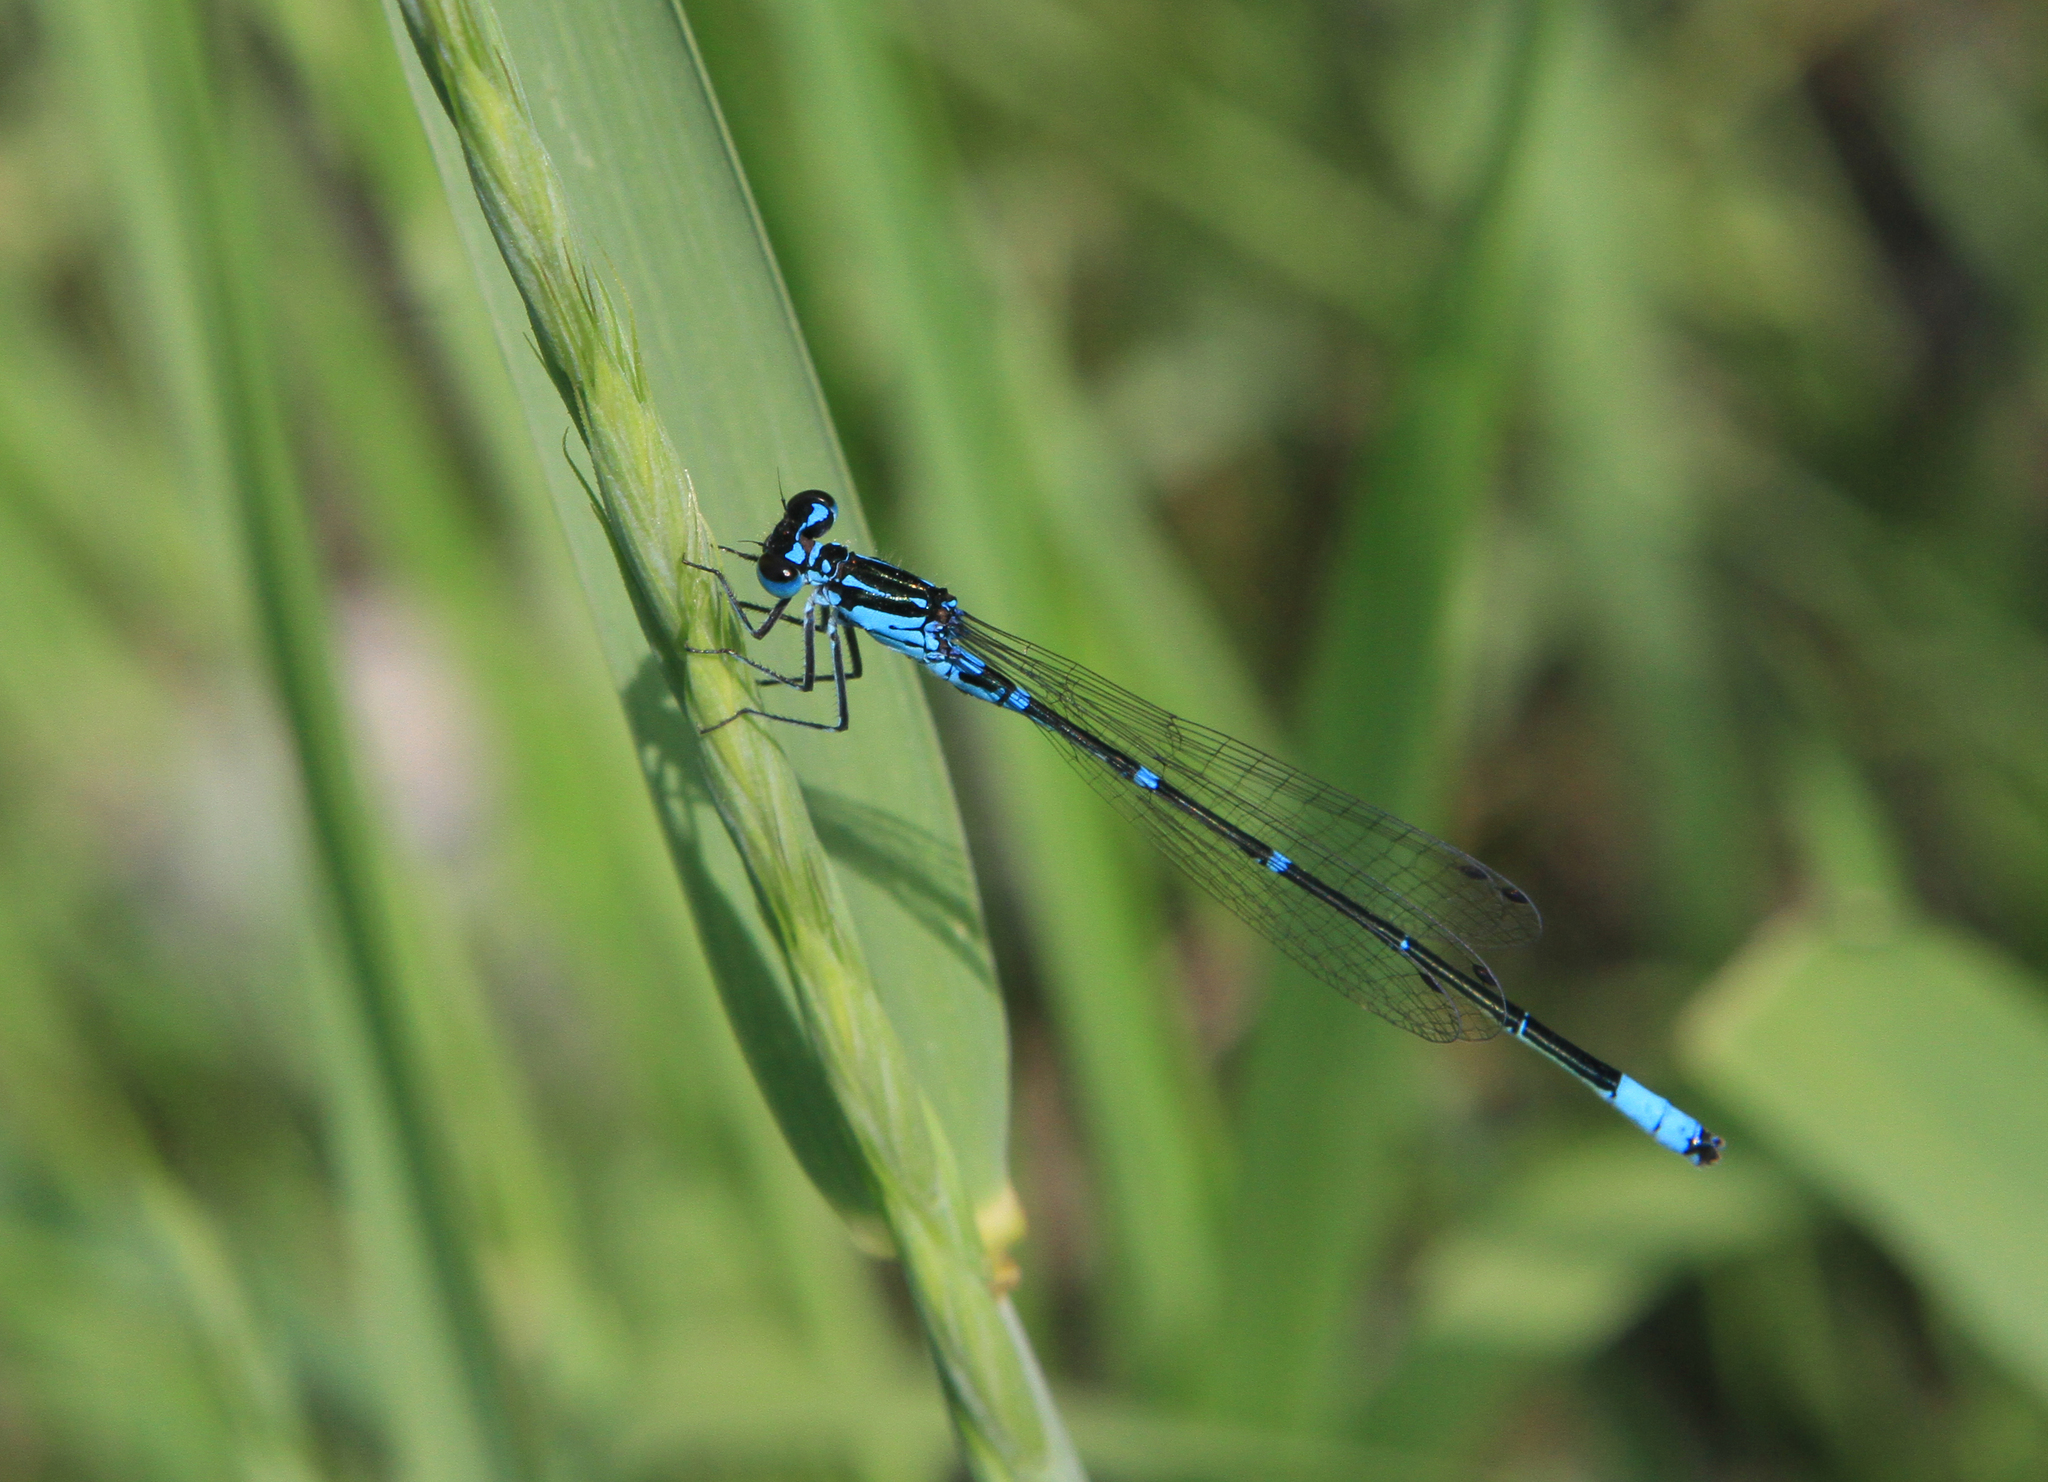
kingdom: Animalia
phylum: Arthropoda
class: Insecta
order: Odonata
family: Coenagrionidae
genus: Coenagrion
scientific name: Coenagrion pulchellum
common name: Variable bluet
